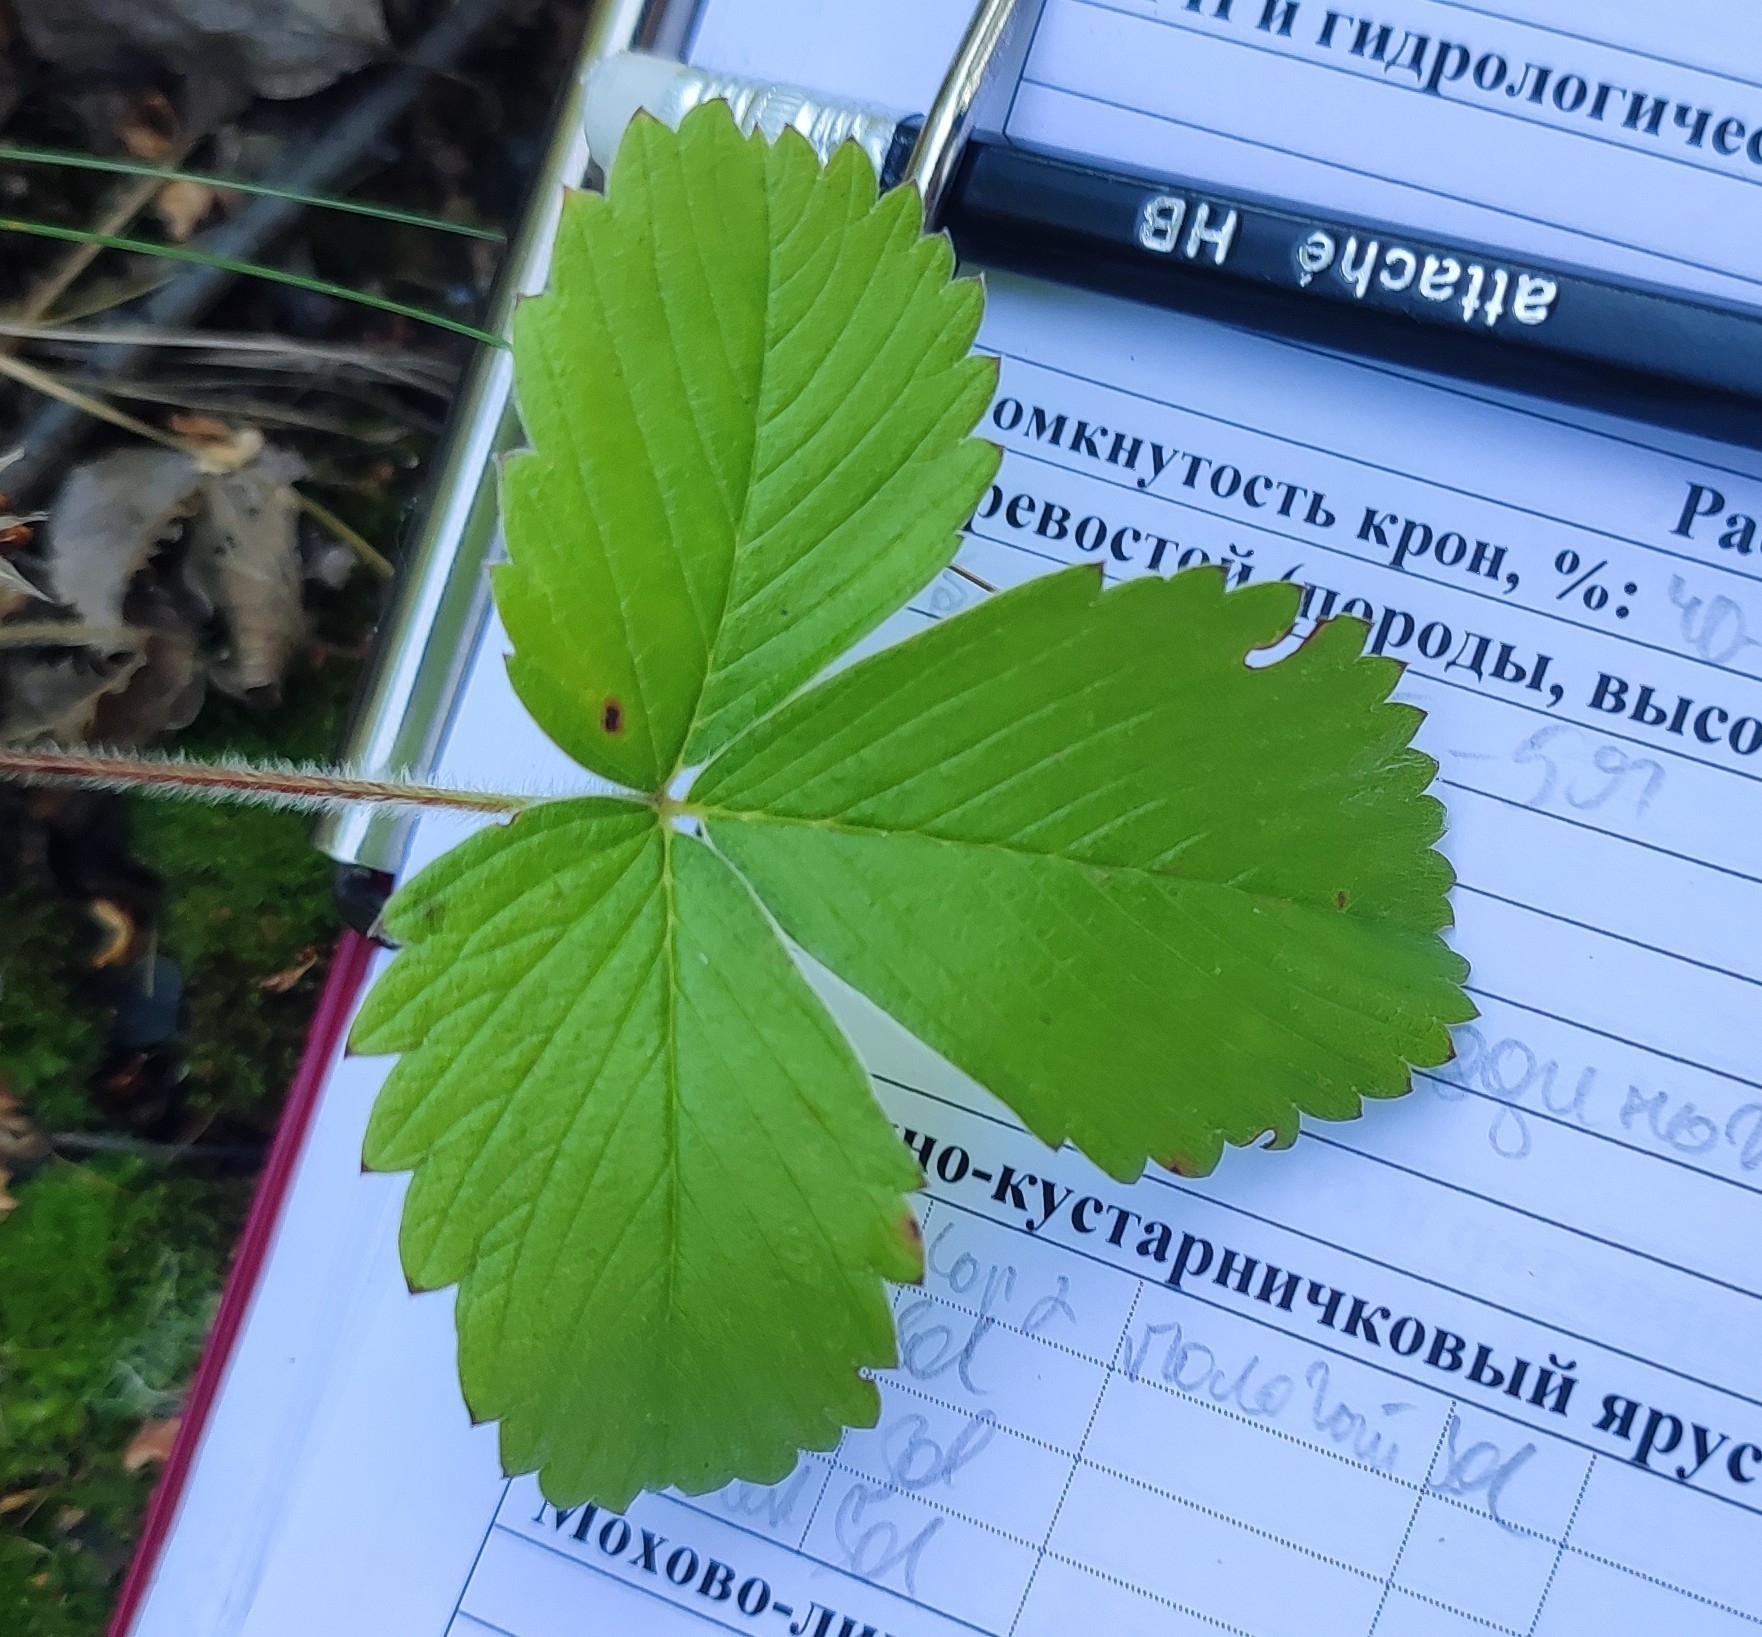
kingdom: Plantae
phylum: Tracheophyta
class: Magnoliopsida
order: Rosales
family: Rosaceae
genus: Fragaria
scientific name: Fragaria viridis
